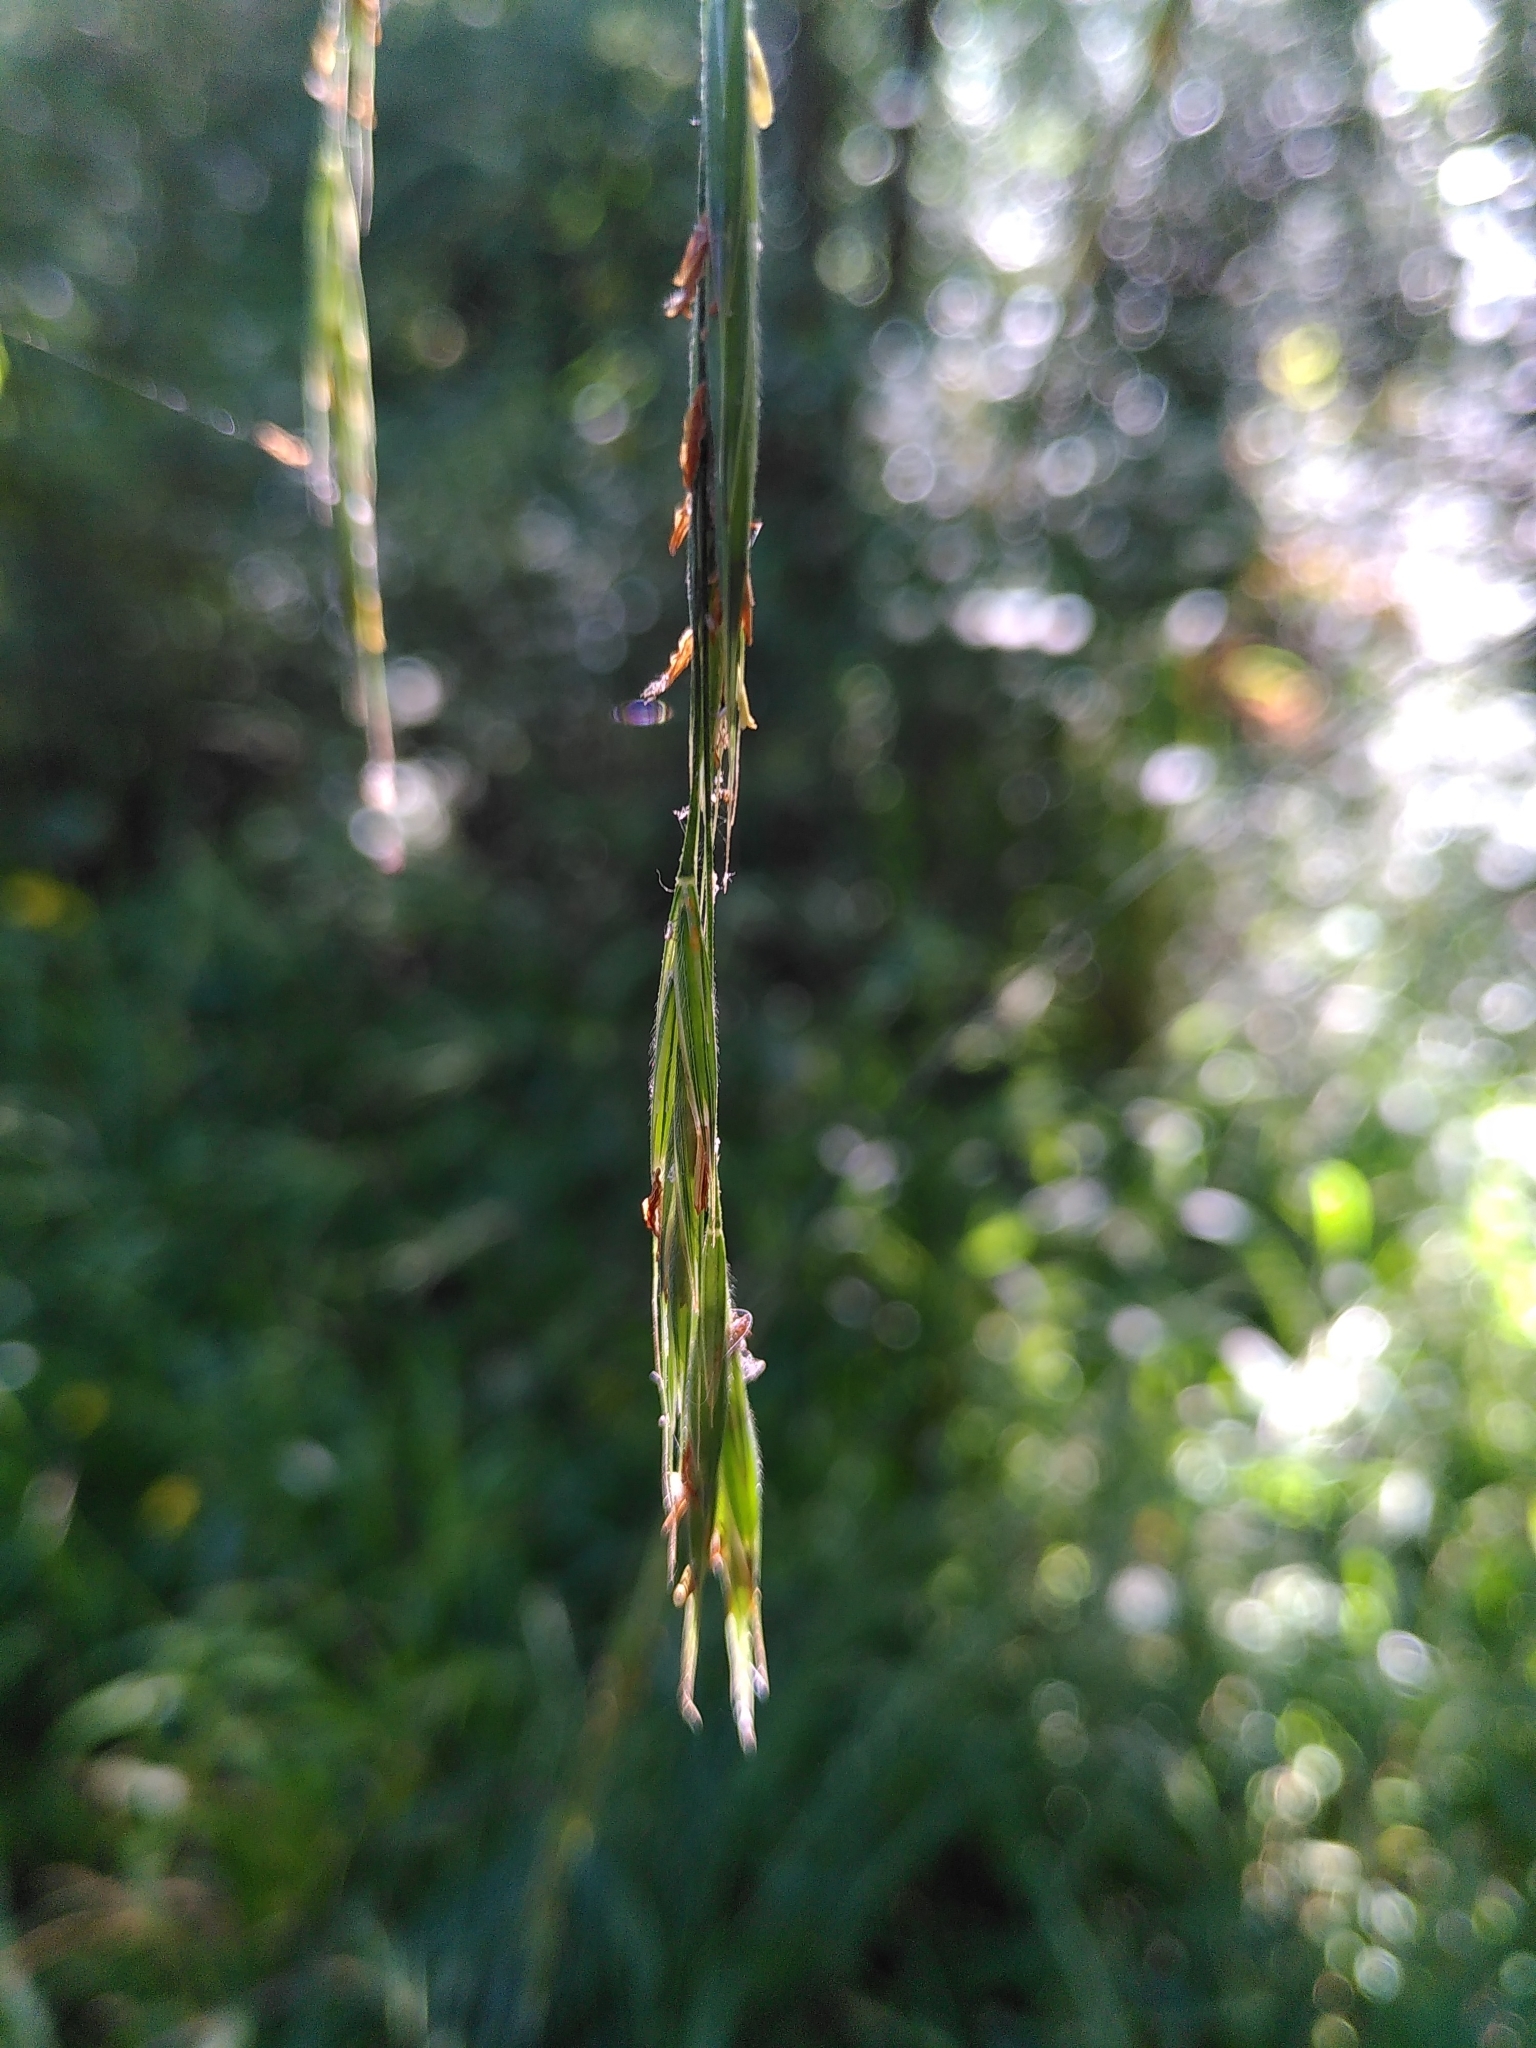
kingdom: Plantae
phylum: Tracheophyta
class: Liliopsida
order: Poales
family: Poaceae
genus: Brachypodium
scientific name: Brachypodium sylvaticum
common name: False-brome
